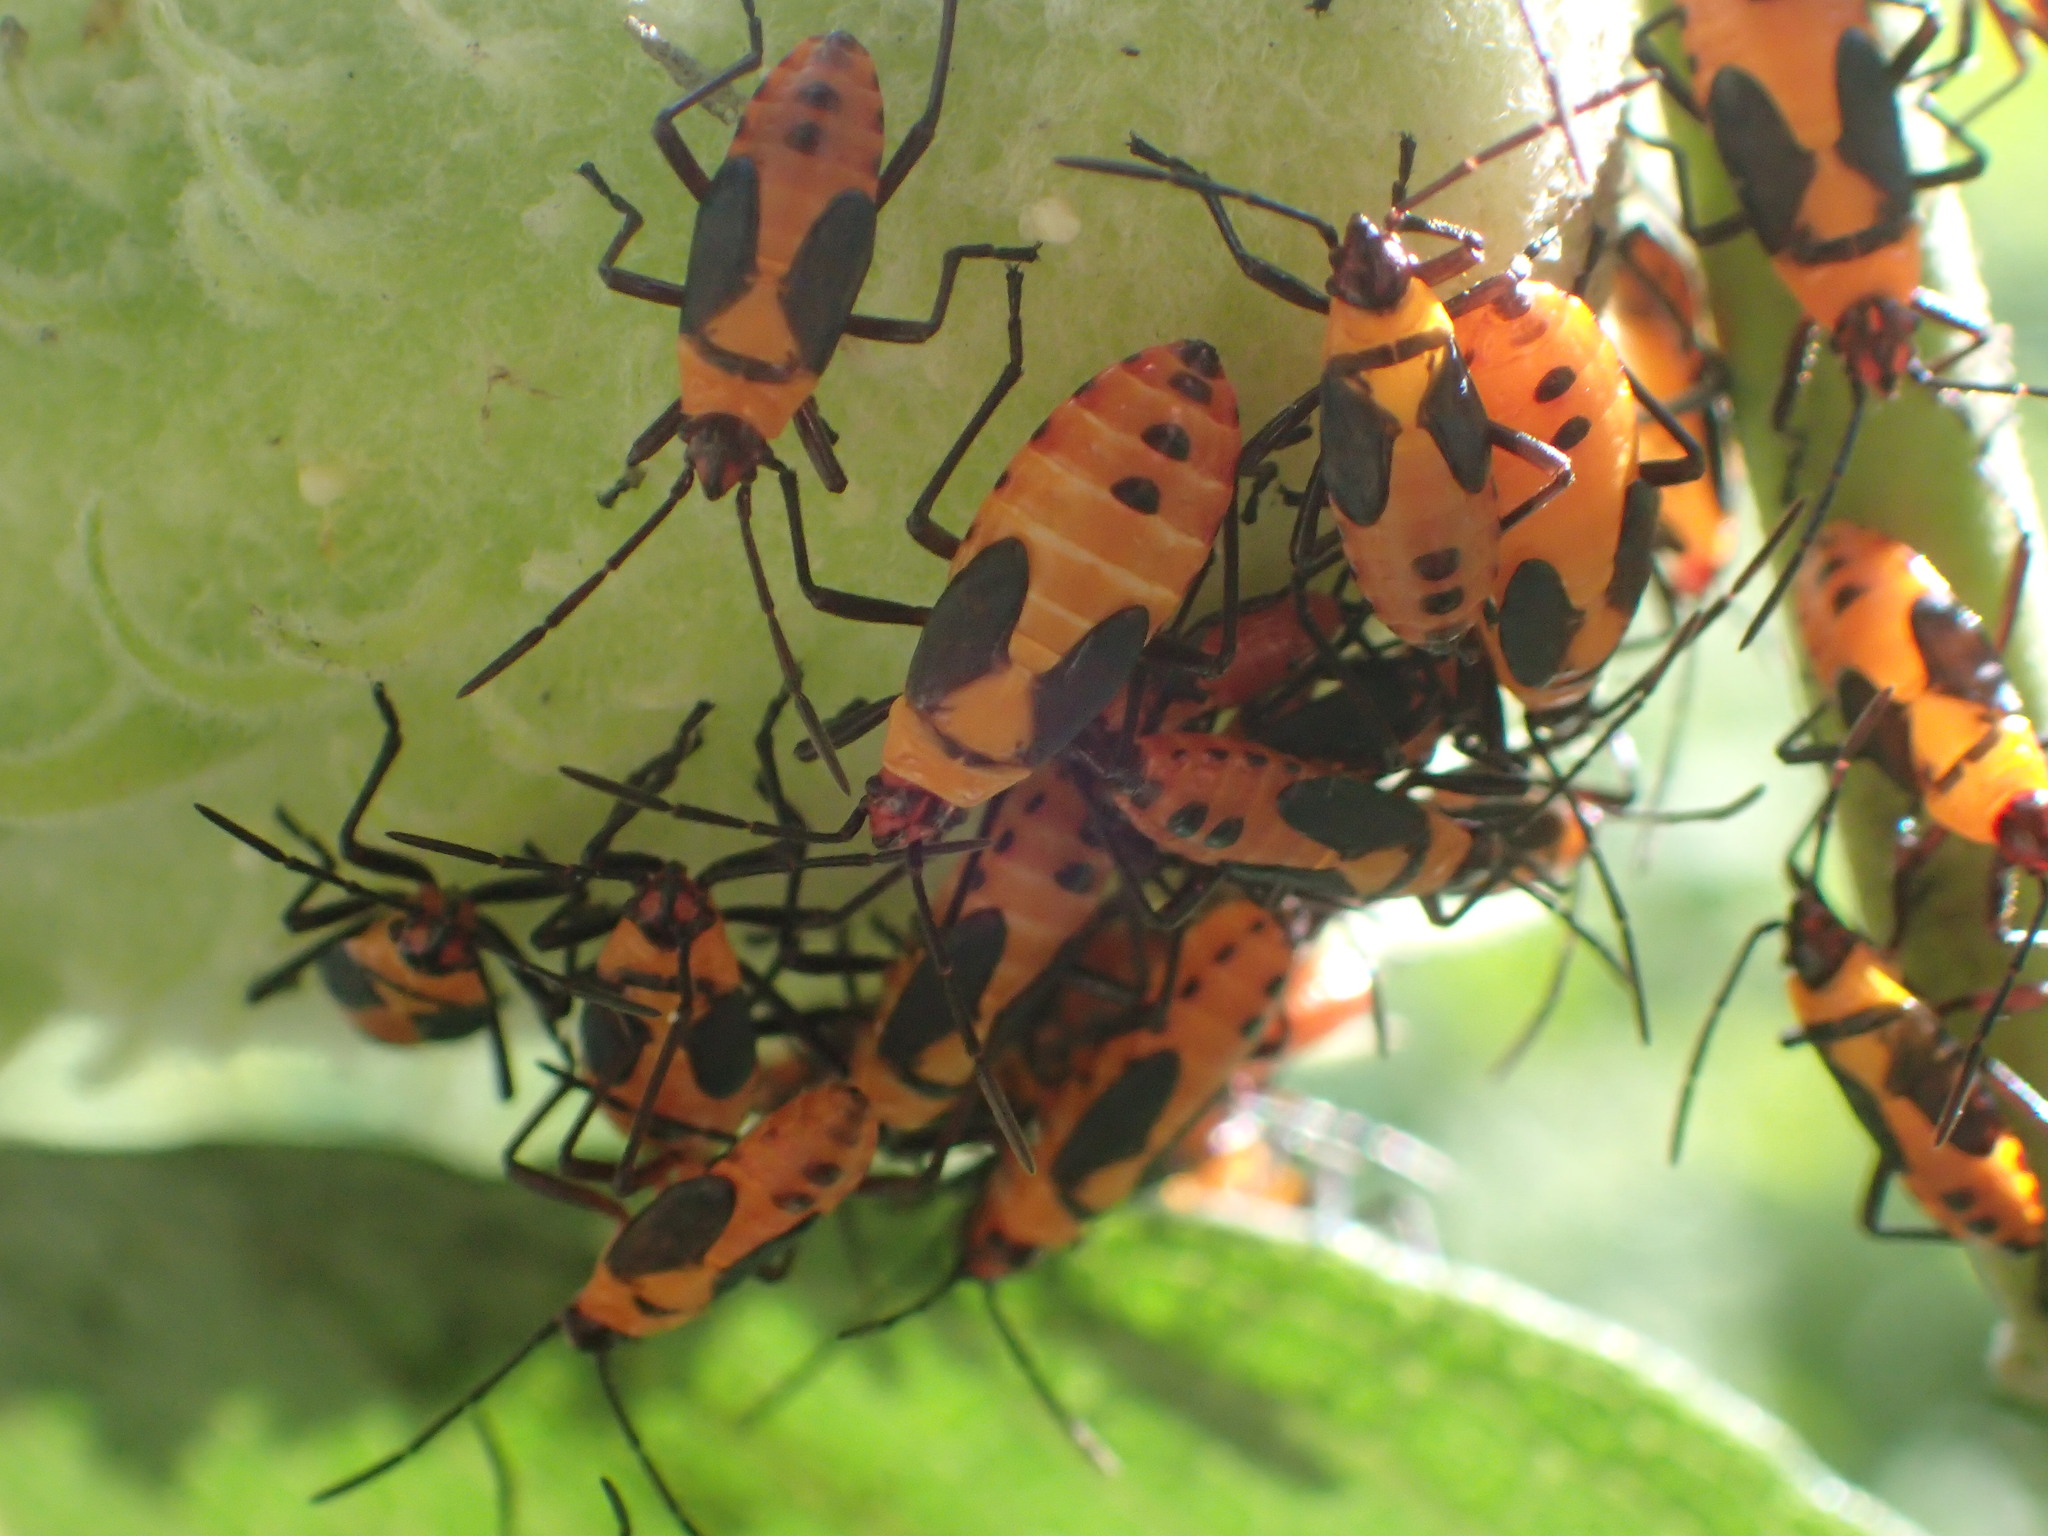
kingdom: Animalia
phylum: Arthropoda
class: Insecta
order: Hemiptera
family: Lygaeidae
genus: Oncopeltus
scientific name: Oncopeltus fasciatus
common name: Large milkweed bug
